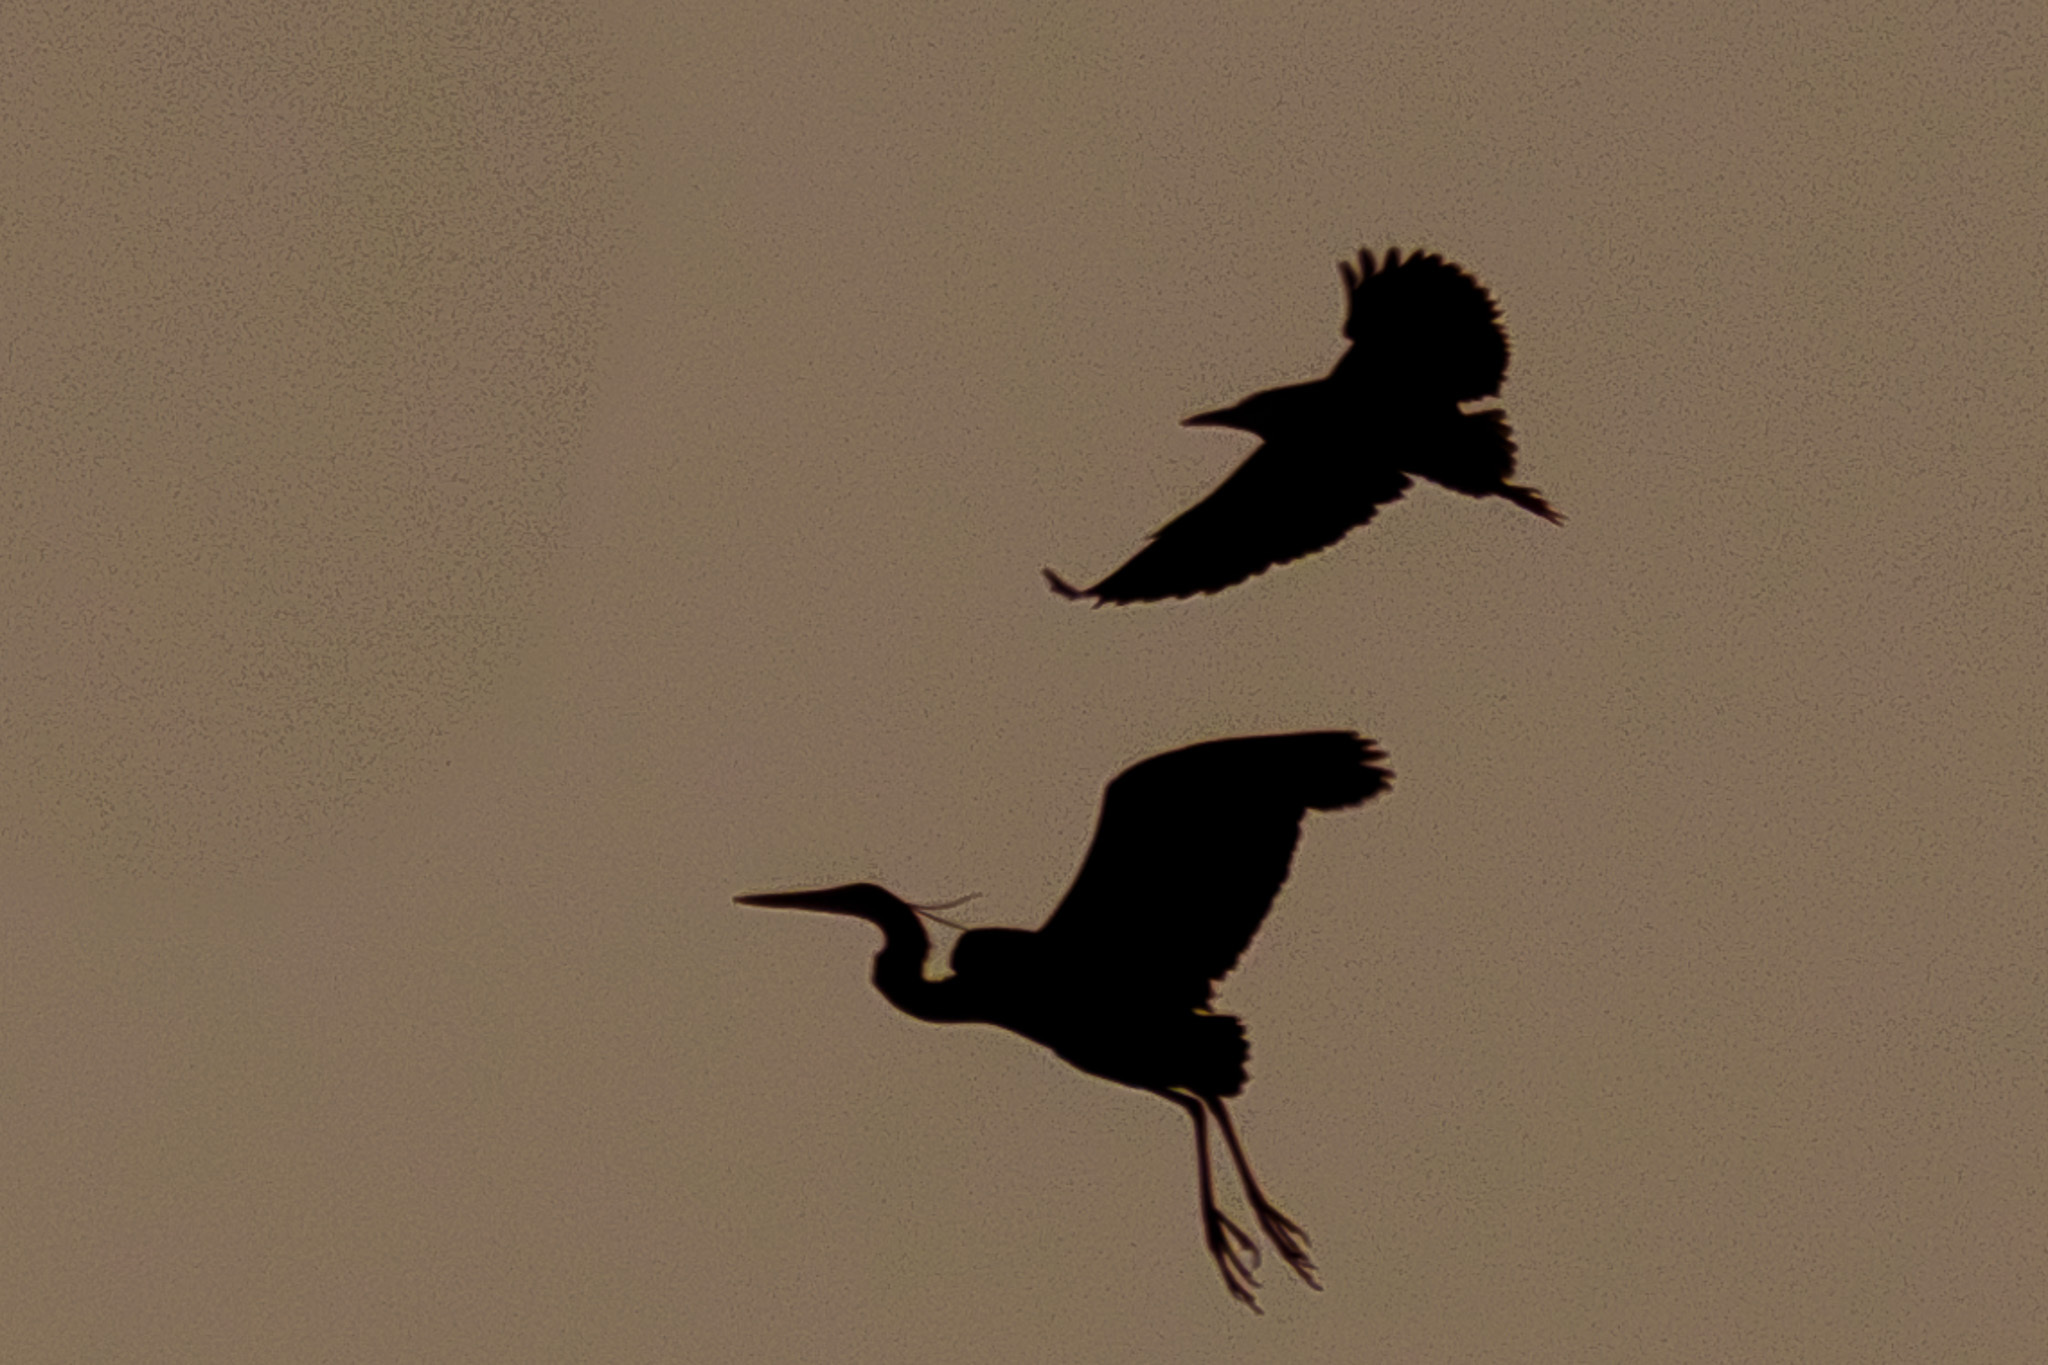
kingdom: Animalia
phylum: Chordata
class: Aves
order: Pelecaniformes
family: Ardeidae
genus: Nycticorax
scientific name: Nycticorax nycticorax
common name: Black-crowned night heron
